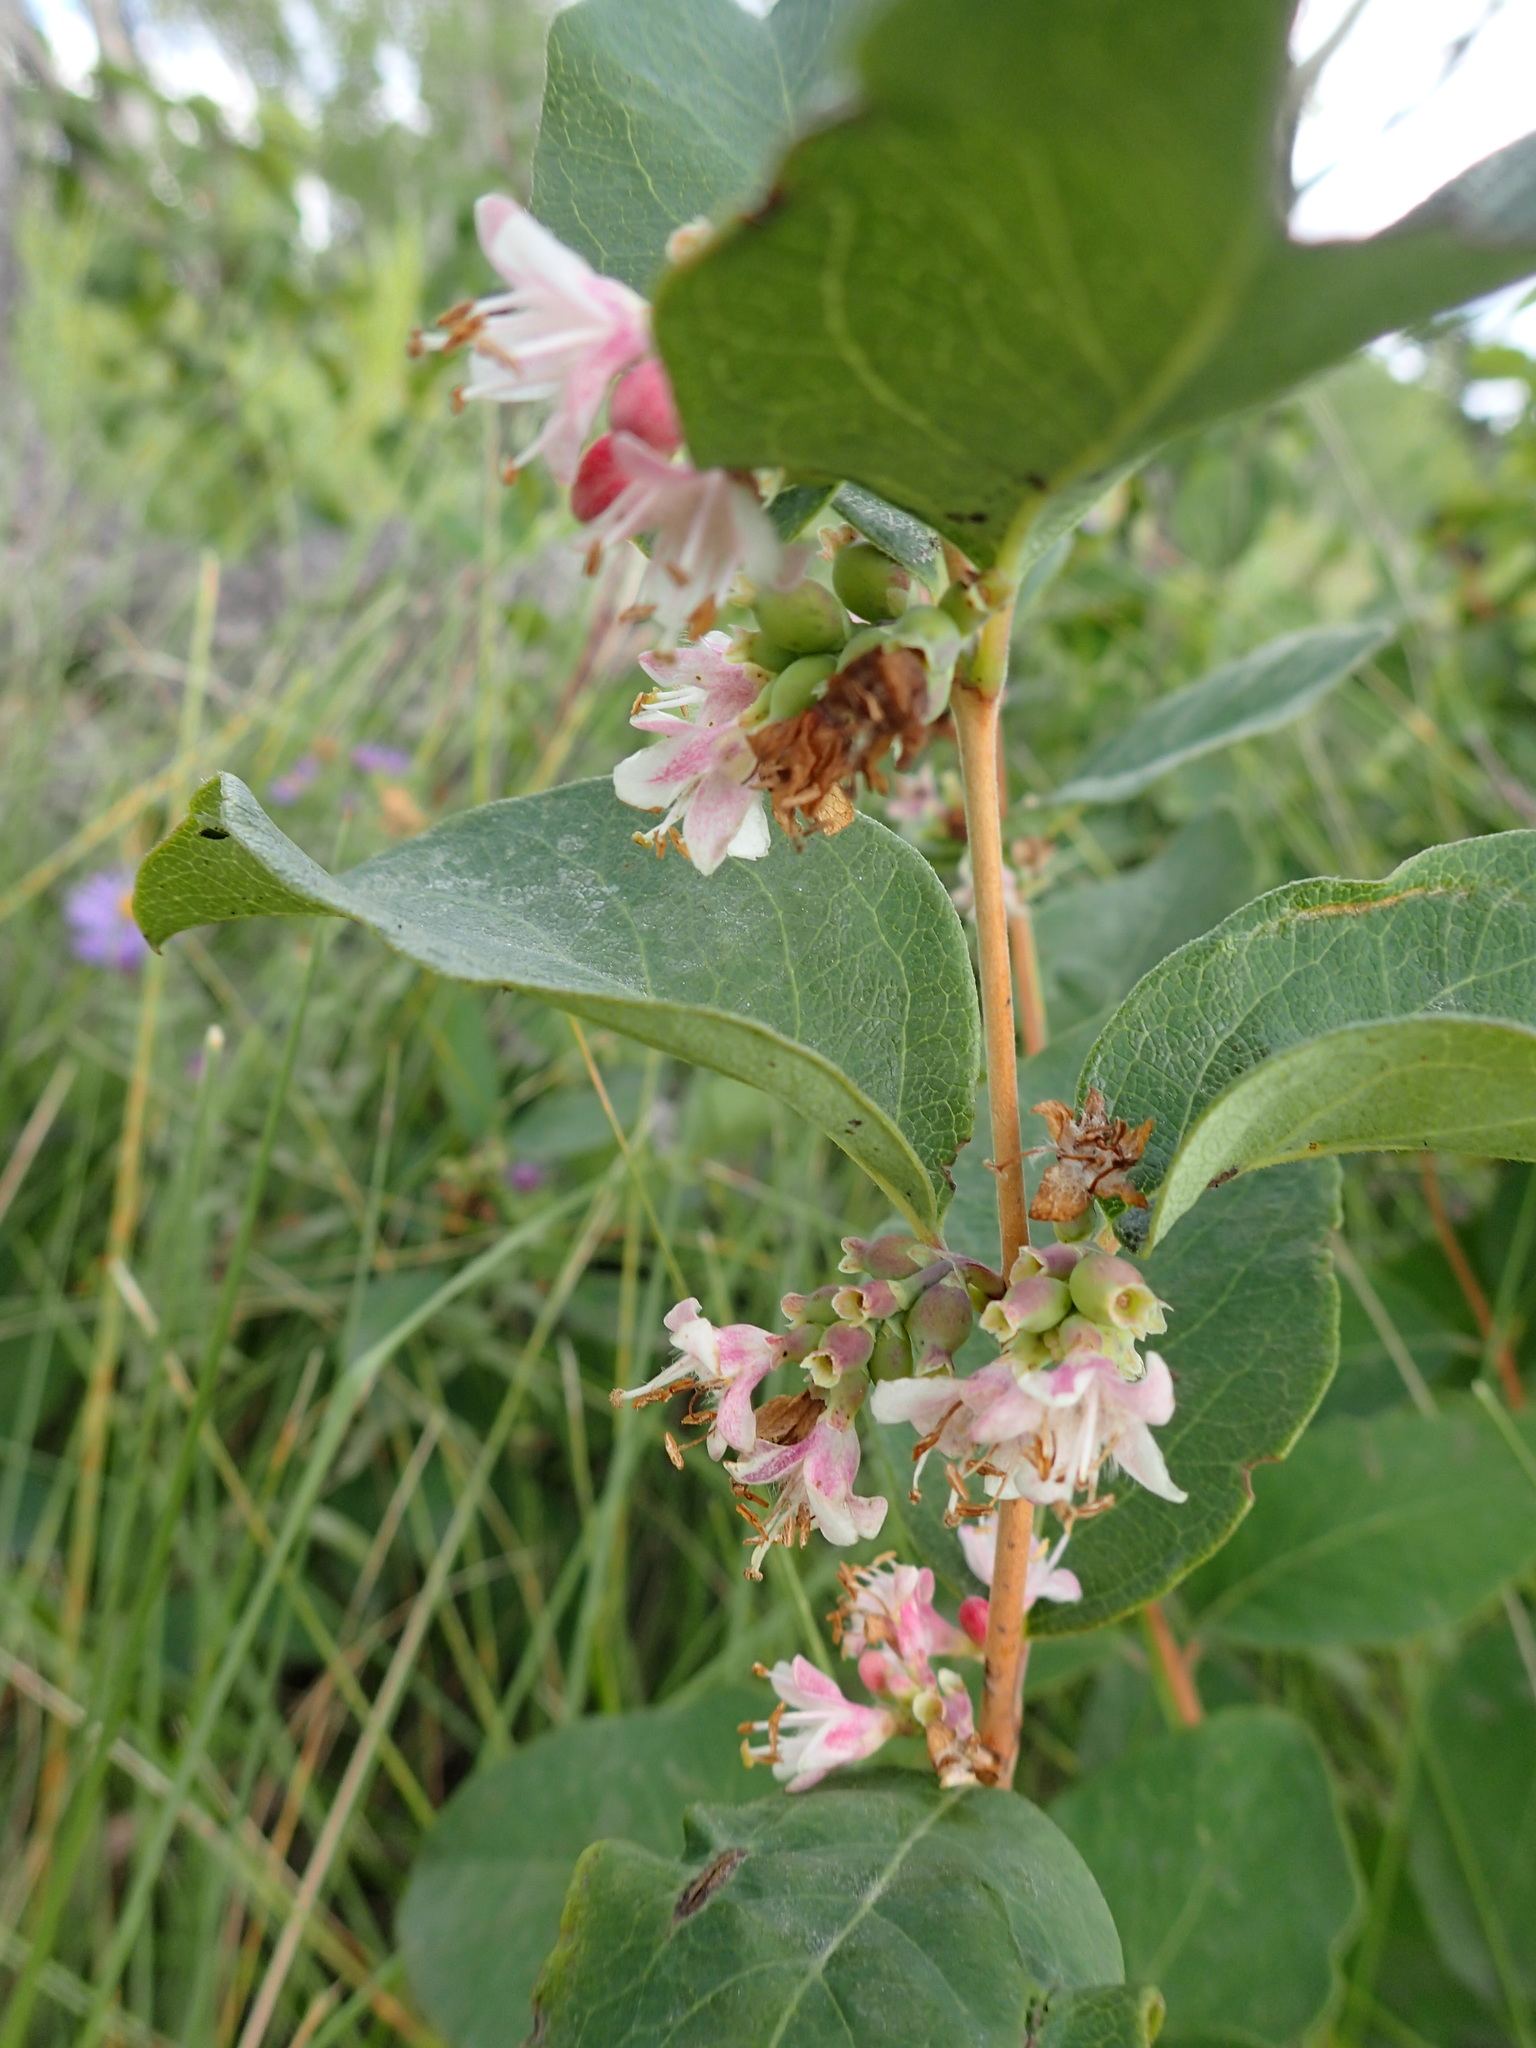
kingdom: Plantae
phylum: Tracheophyta
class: Magnoliopsida
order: Dipsacales
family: Caprifoliaceae
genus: Symphoricarpos
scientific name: Symphoricarpos occidentalis
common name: Wolfberry
